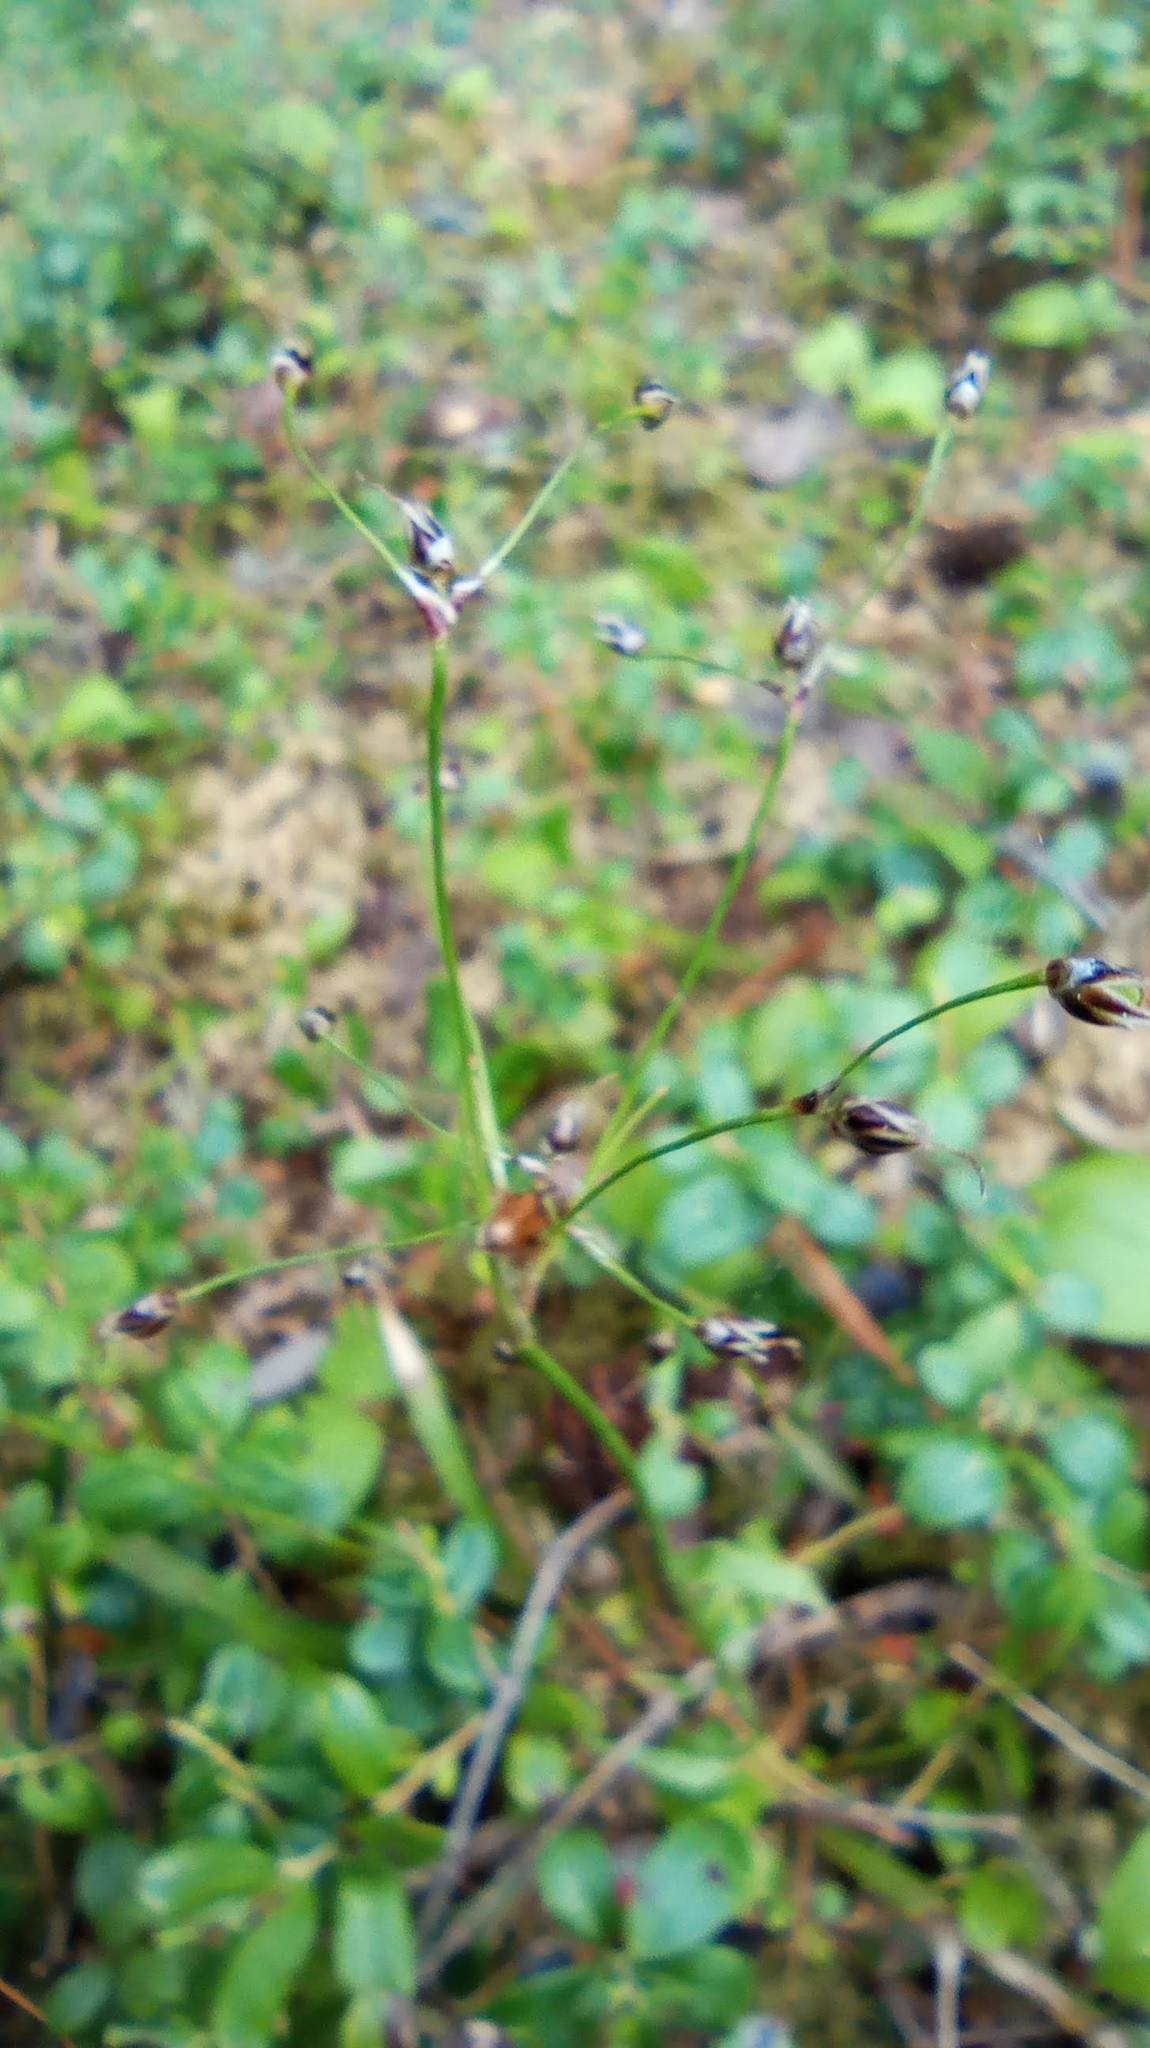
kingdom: Plantae
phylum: Tracheophyta
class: Liliopsida
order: Poales
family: Juncaceae
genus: Luzula
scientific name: Luzula pilosa
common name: Hairy wood-rush
